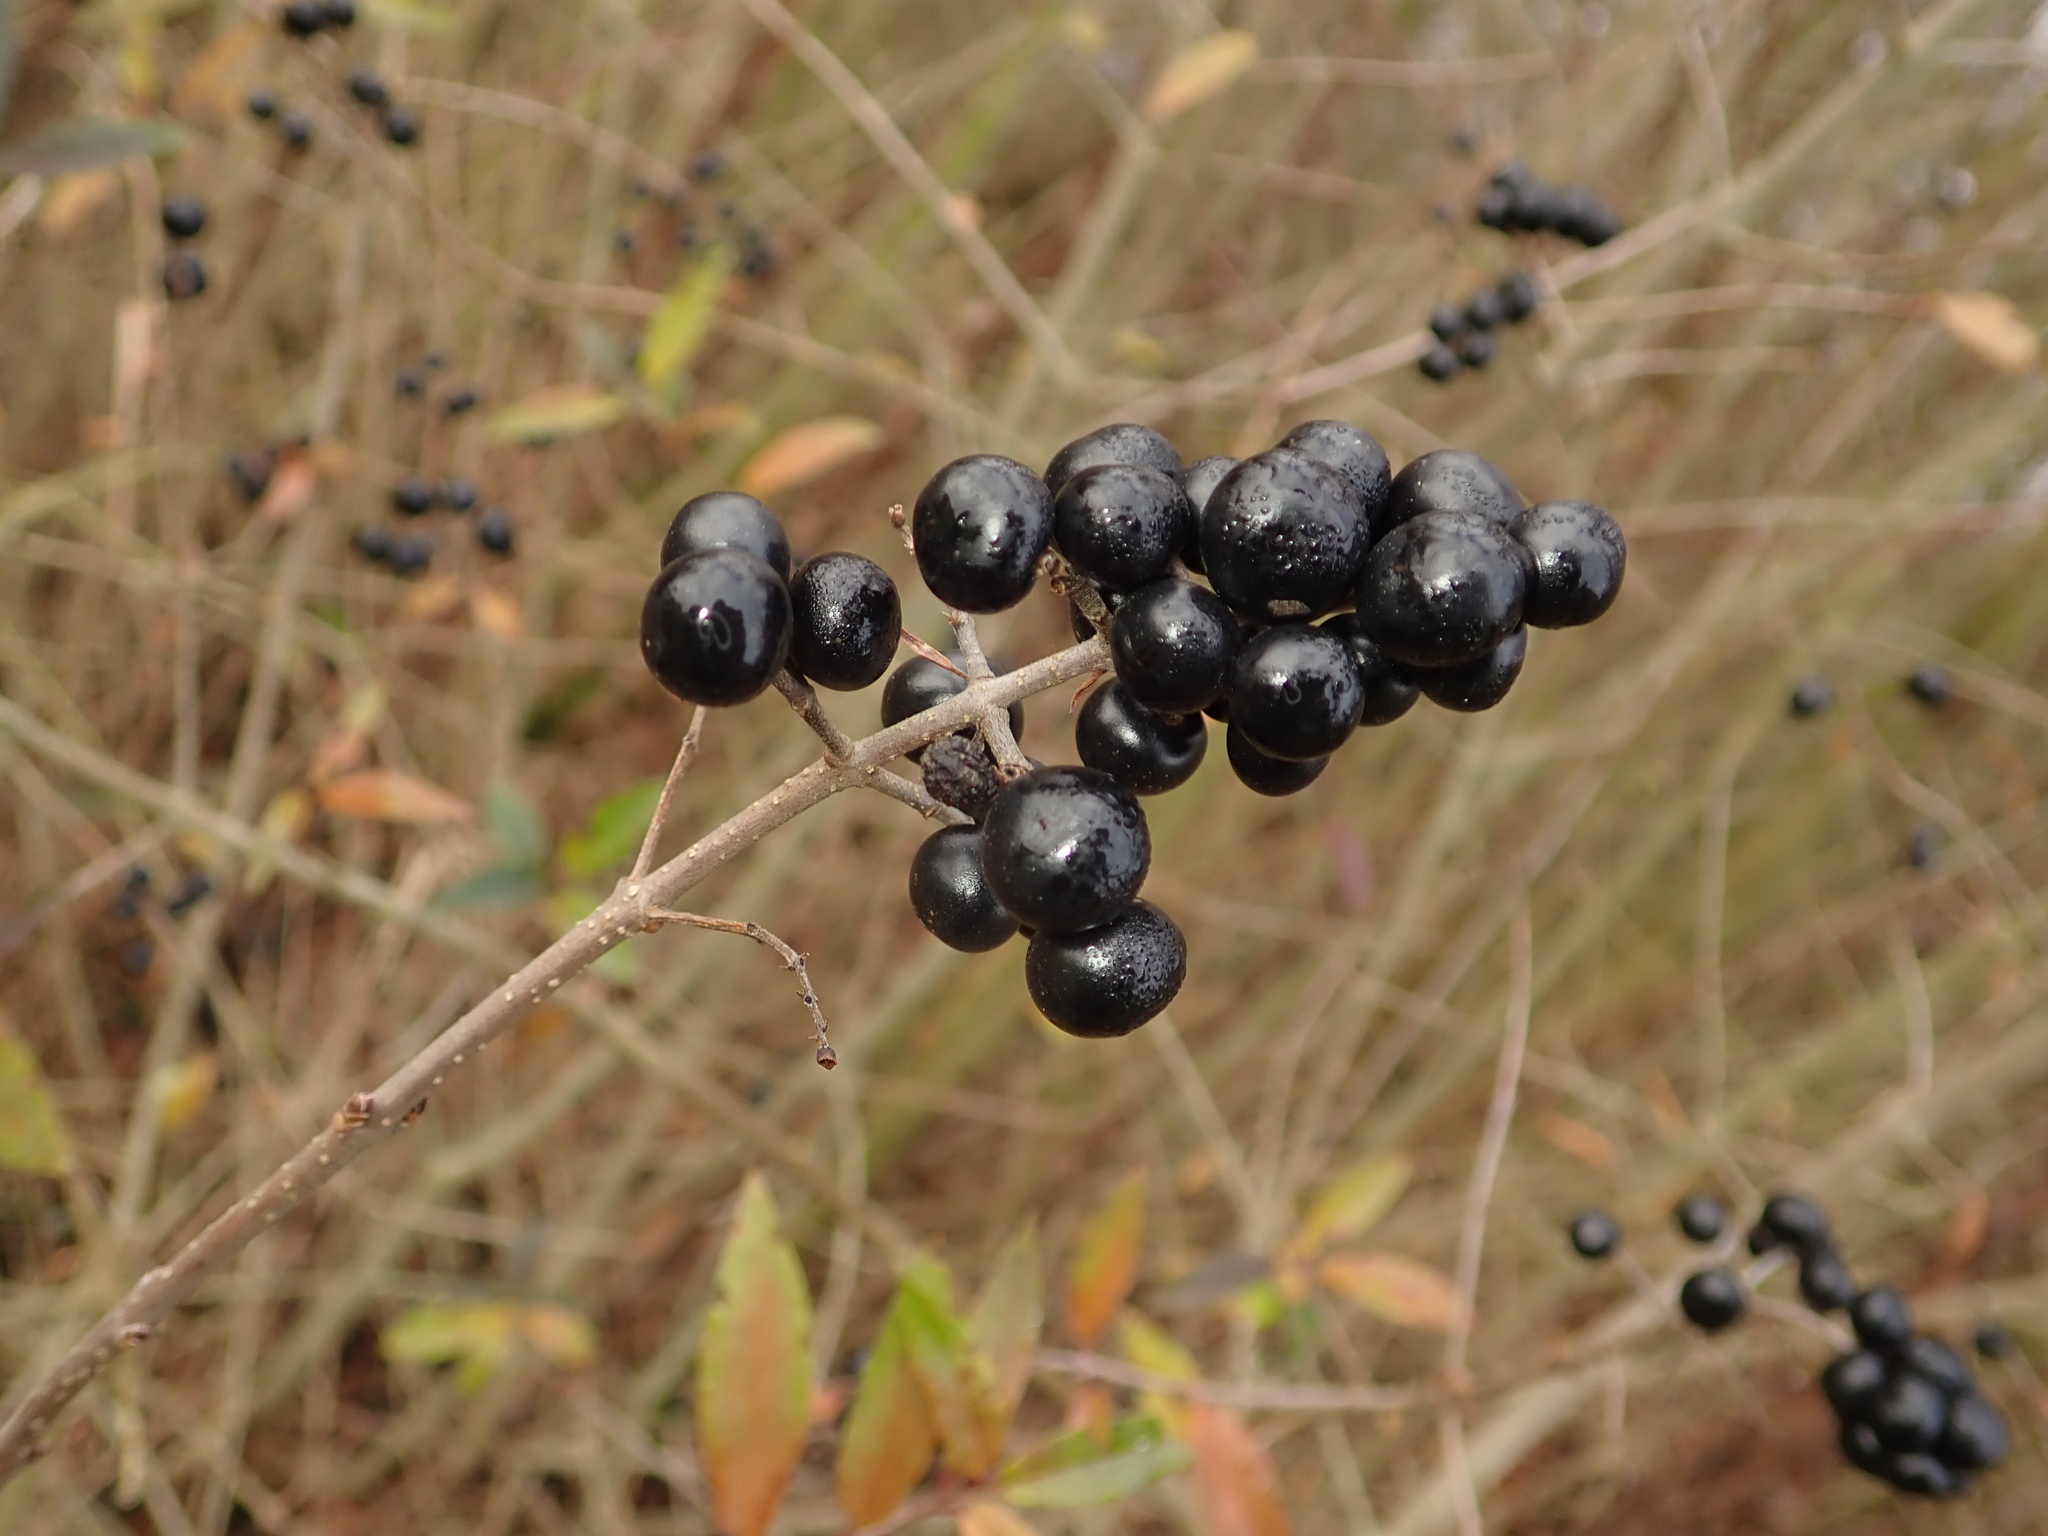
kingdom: Plantae
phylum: Tracheophyta
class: Magnoliopsida
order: Lamiales
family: Oleaceae
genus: Ligustrum
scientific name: Ligustrum vulgare
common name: Wild privet
